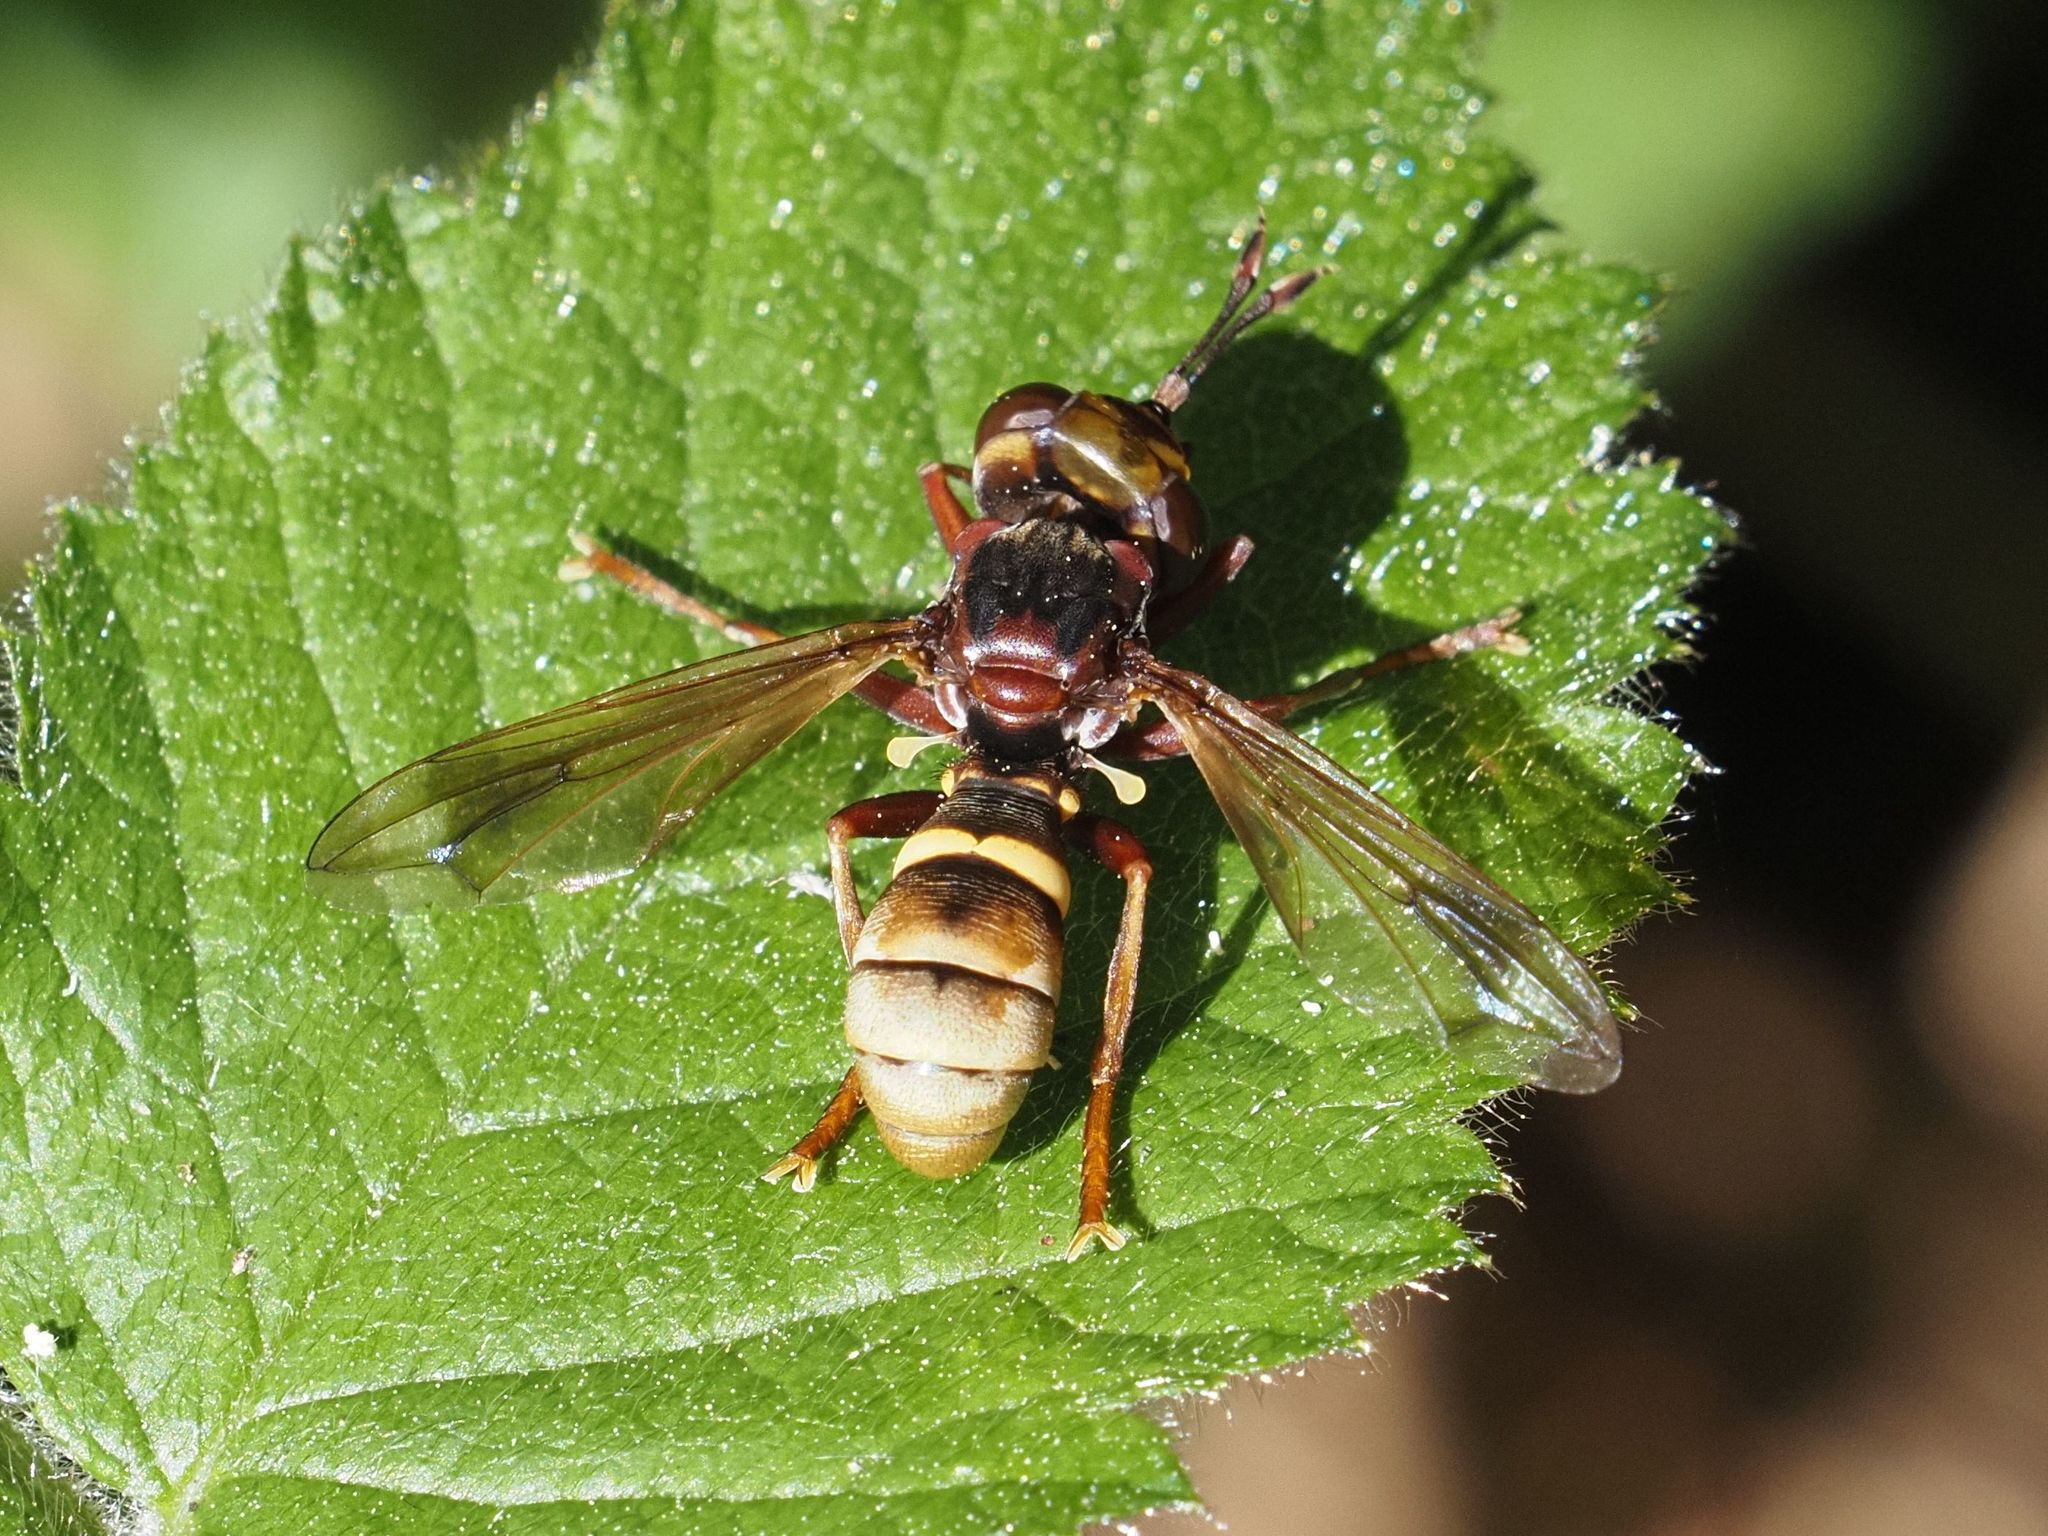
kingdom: Animalia
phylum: Arthropoda
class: Insecta
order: Diptera
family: Conopidae
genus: Conops
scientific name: Conops vesicularis
